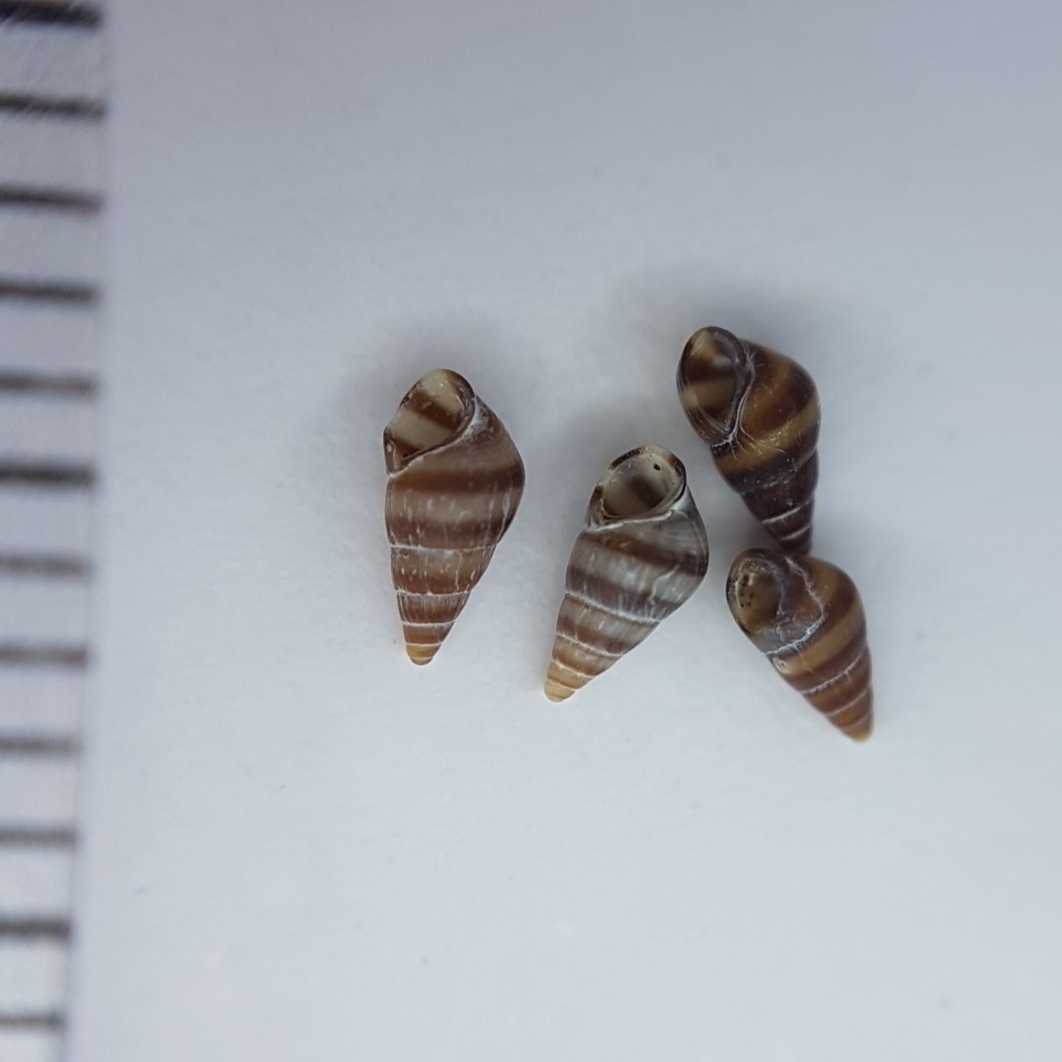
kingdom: Animalia
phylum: Mollusca
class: Gastropoda
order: Littorinimorpha
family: Rissoidae
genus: Cingula
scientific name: Cingula trifasciata
